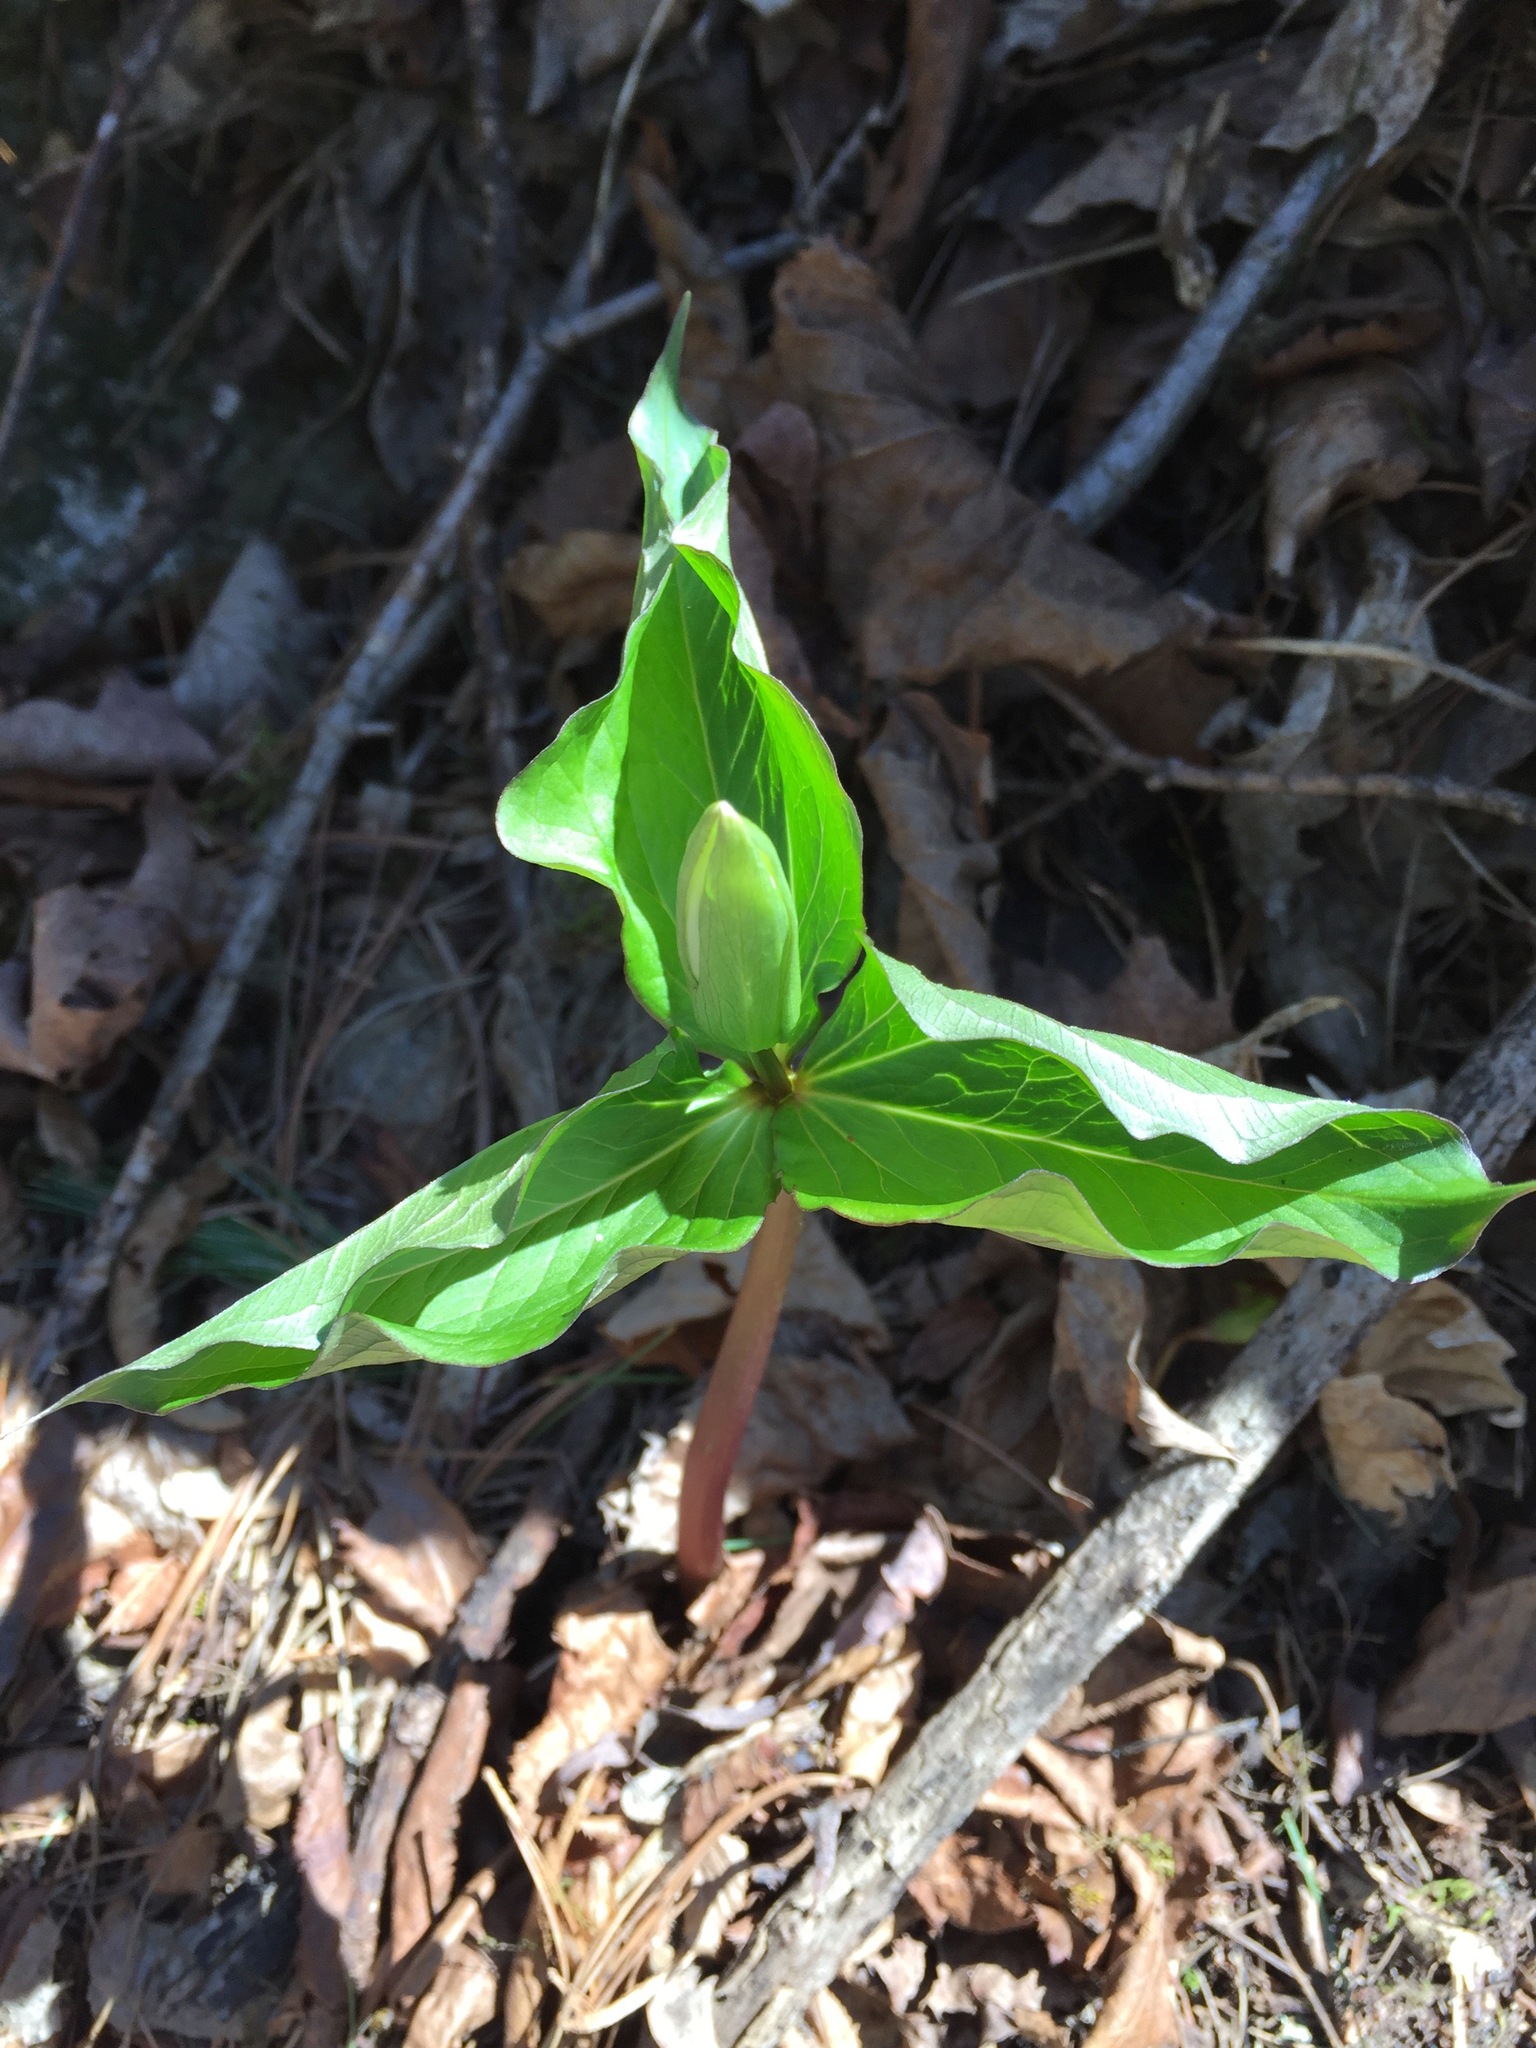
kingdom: Plantae
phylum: Tracheophyta
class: Liliopsida
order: Liliales
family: Melanthiaceae
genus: Trillium
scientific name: Trillium grandiflorum
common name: Great white trillium
